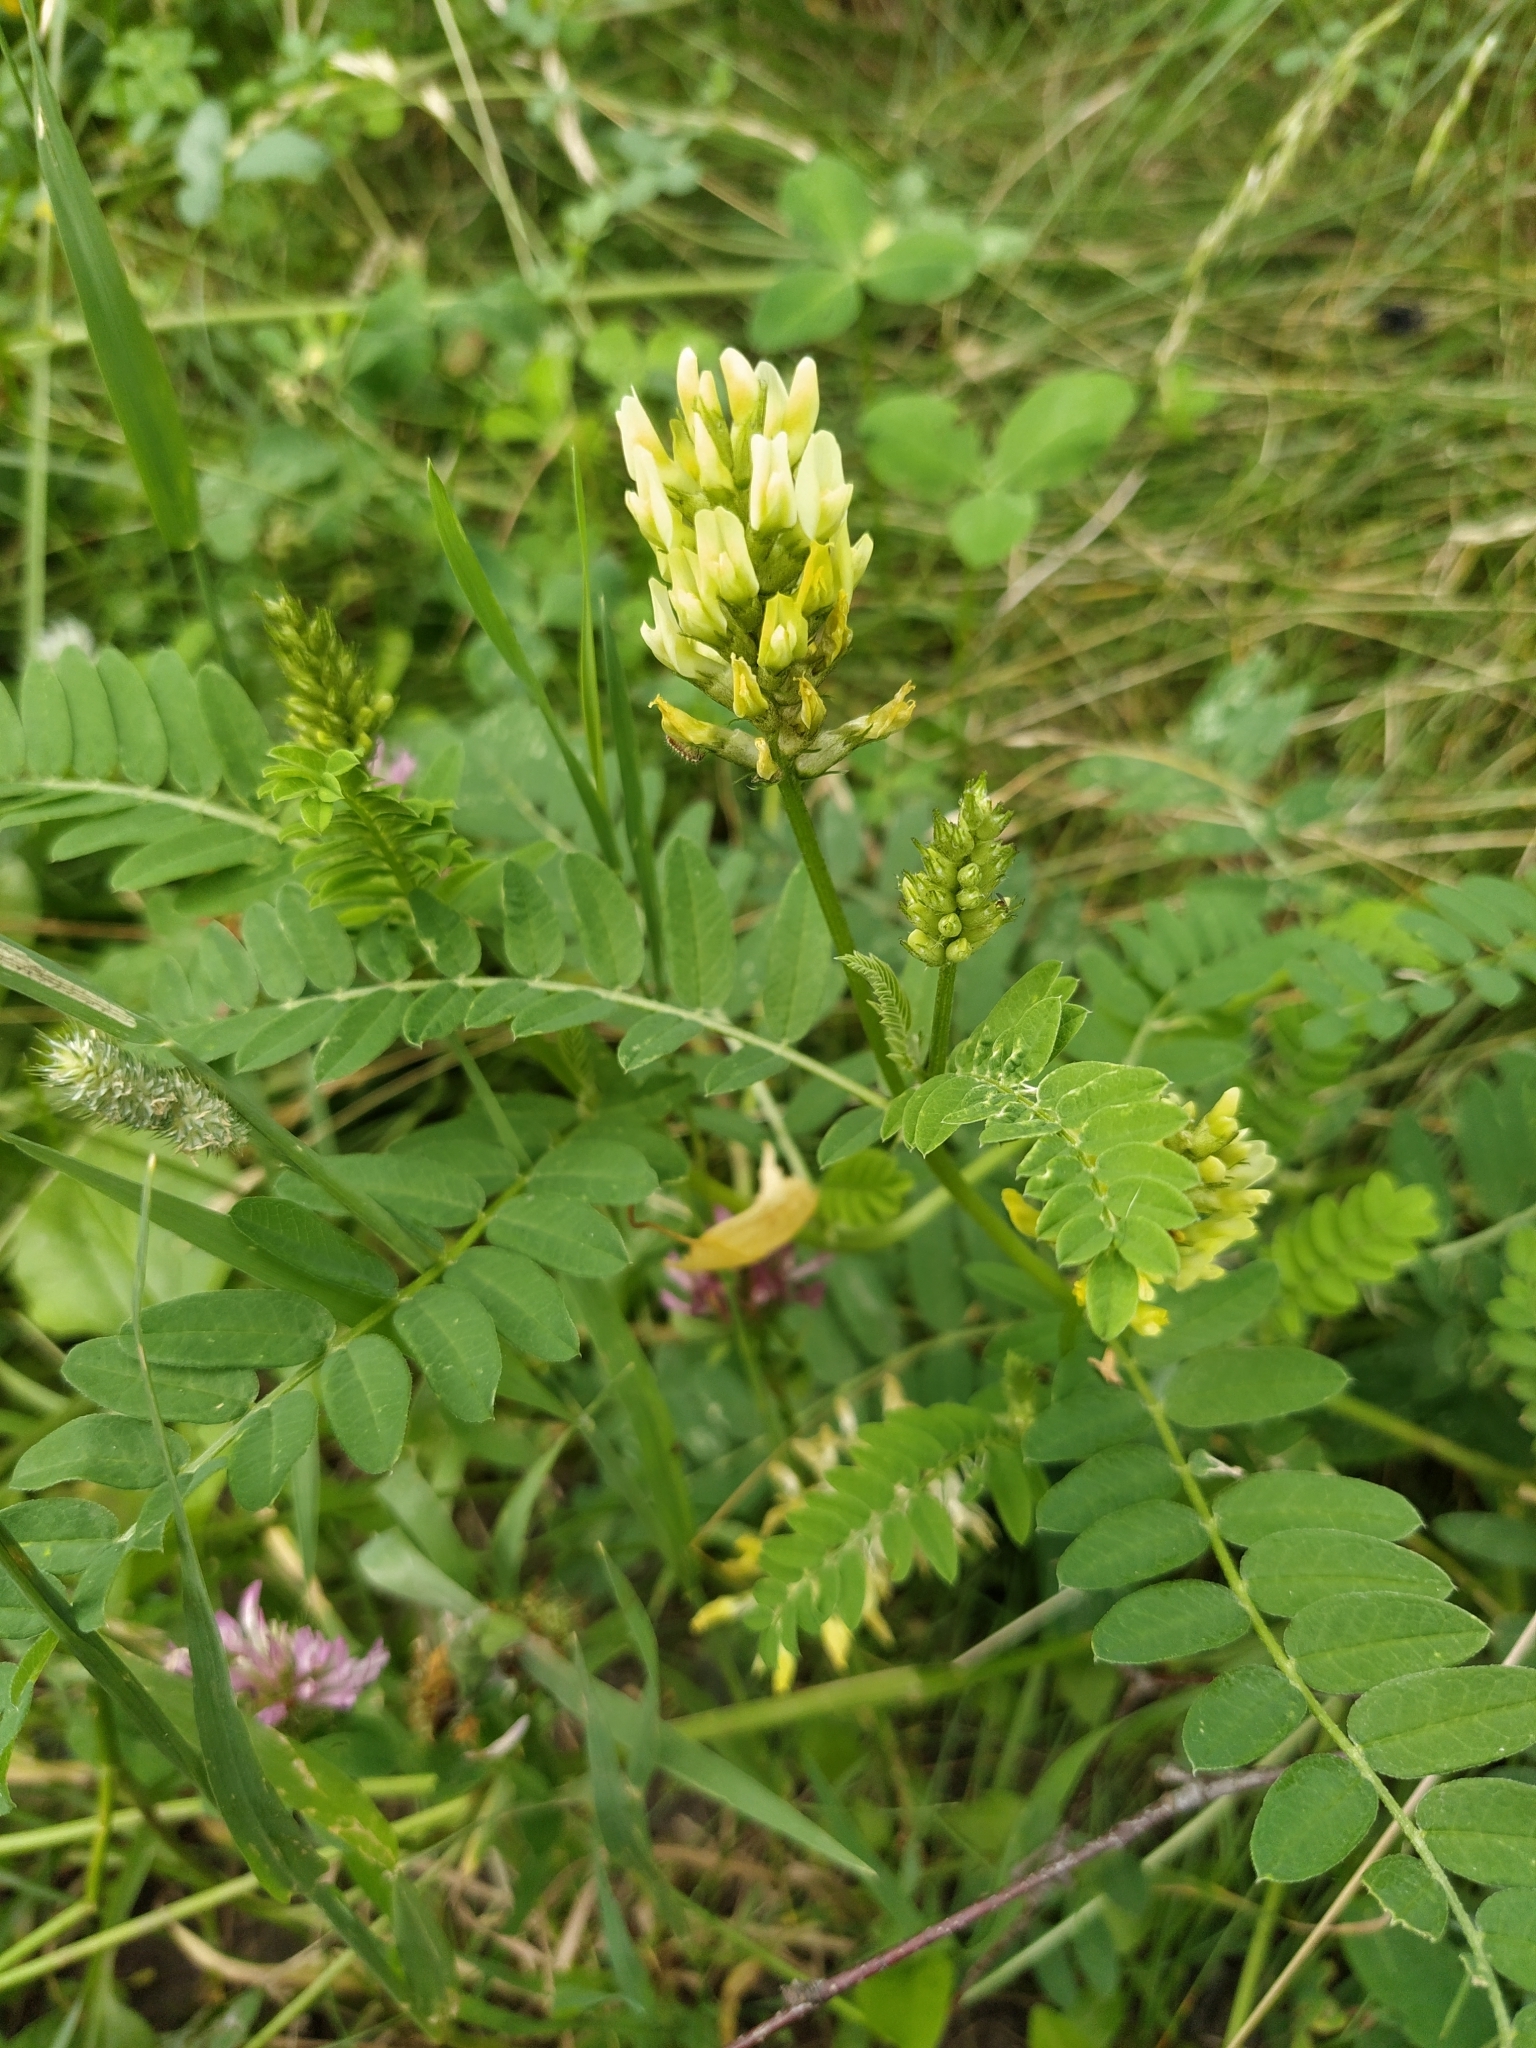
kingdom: Plantae
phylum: Tracheophyta
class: Magnoliopsida
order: Fabales
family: Fabaceae
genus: Astragalus
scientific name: Astragalus cicer
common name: Chick-pea milk-vetch
